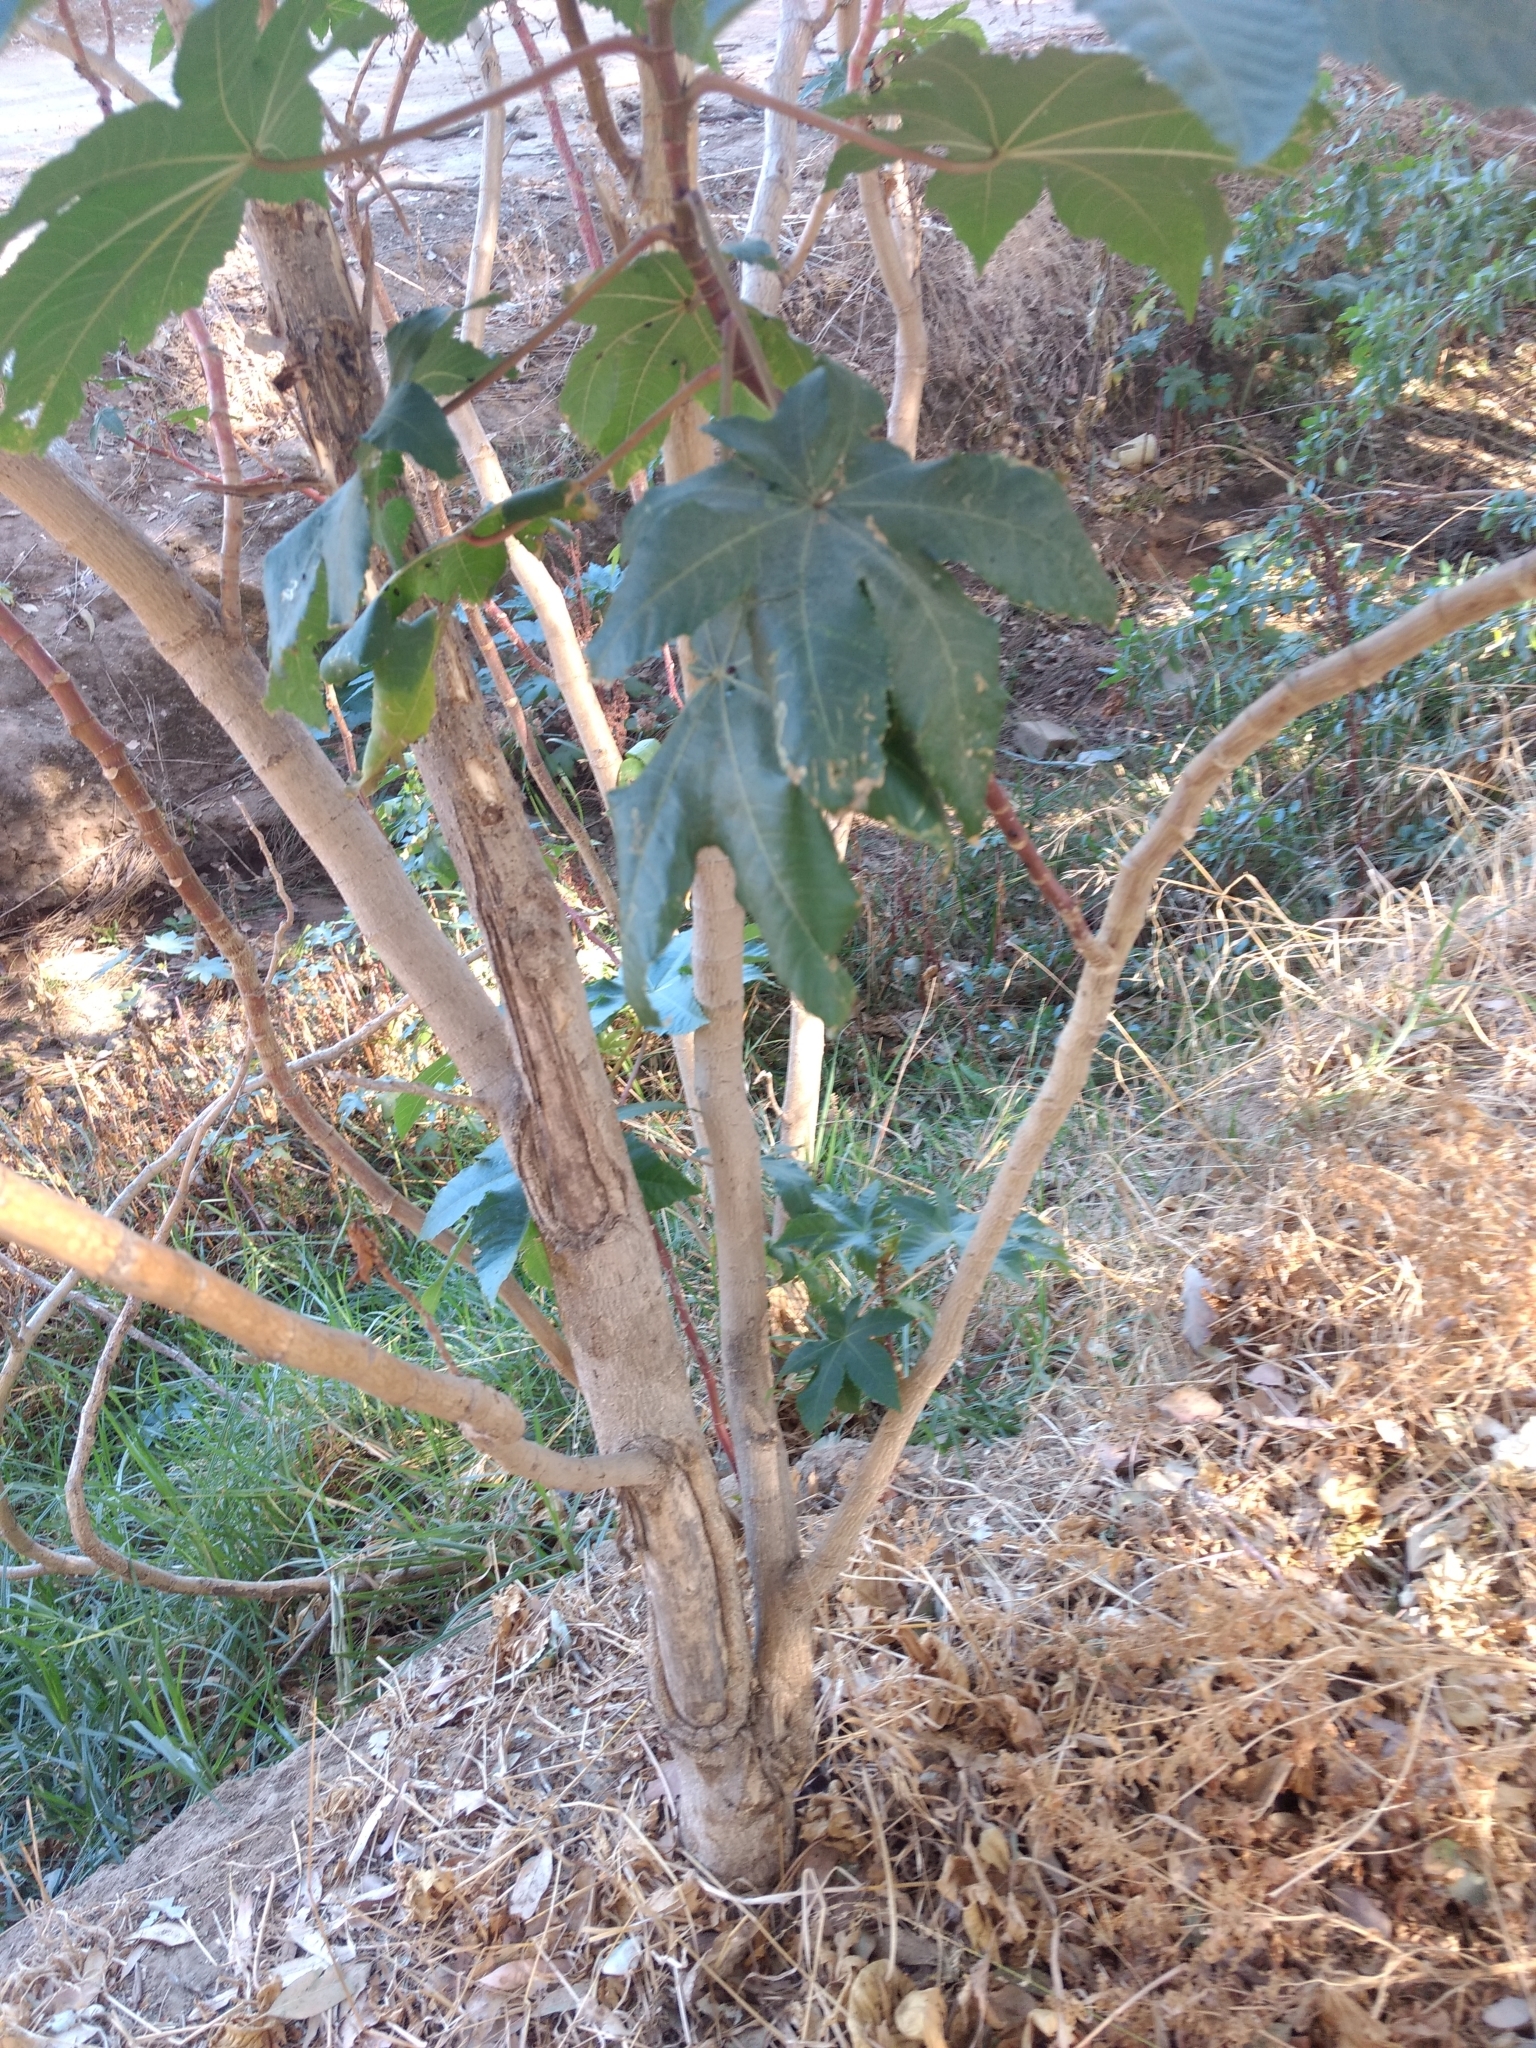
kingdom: Plantae
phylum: Tracheophyta
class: Magnoliopsida
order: Malpighiales
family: Euphorbiaceae
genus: Ricinus
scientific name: Ricinus communis
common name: Castor-oil-plant
